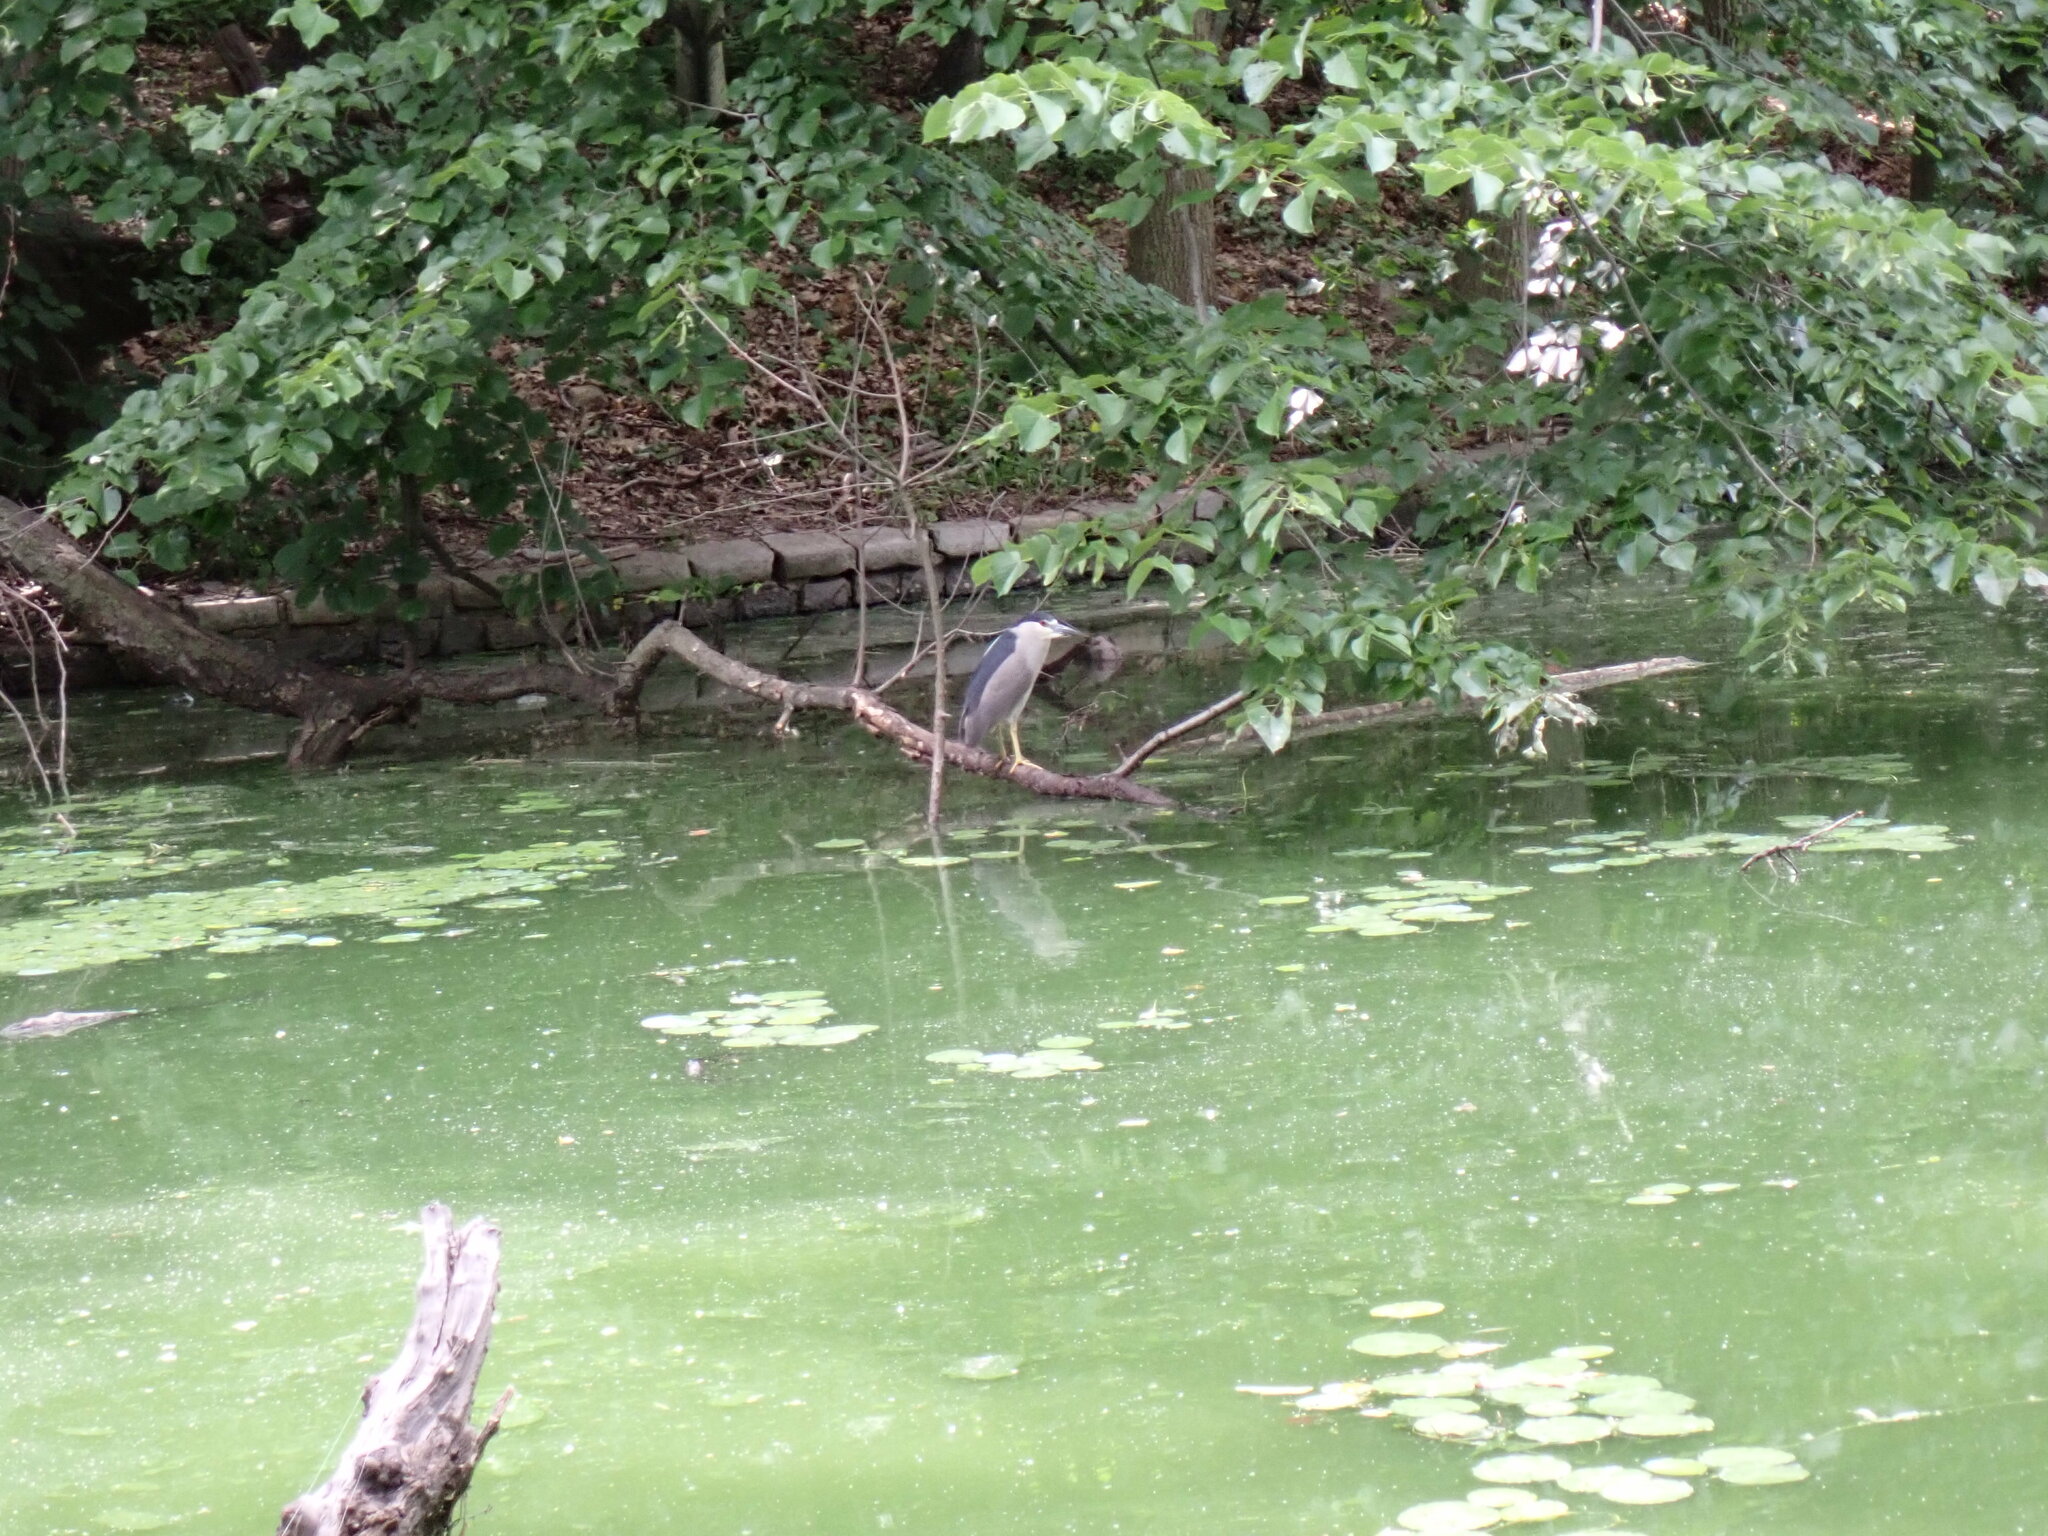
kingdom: Animalia
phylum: Chordata
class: Aves
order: Pelecaniformes
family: Ardeidae
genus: Nycticorax
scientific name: Nycticorax nycticorax
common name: Black-crowned night heron
